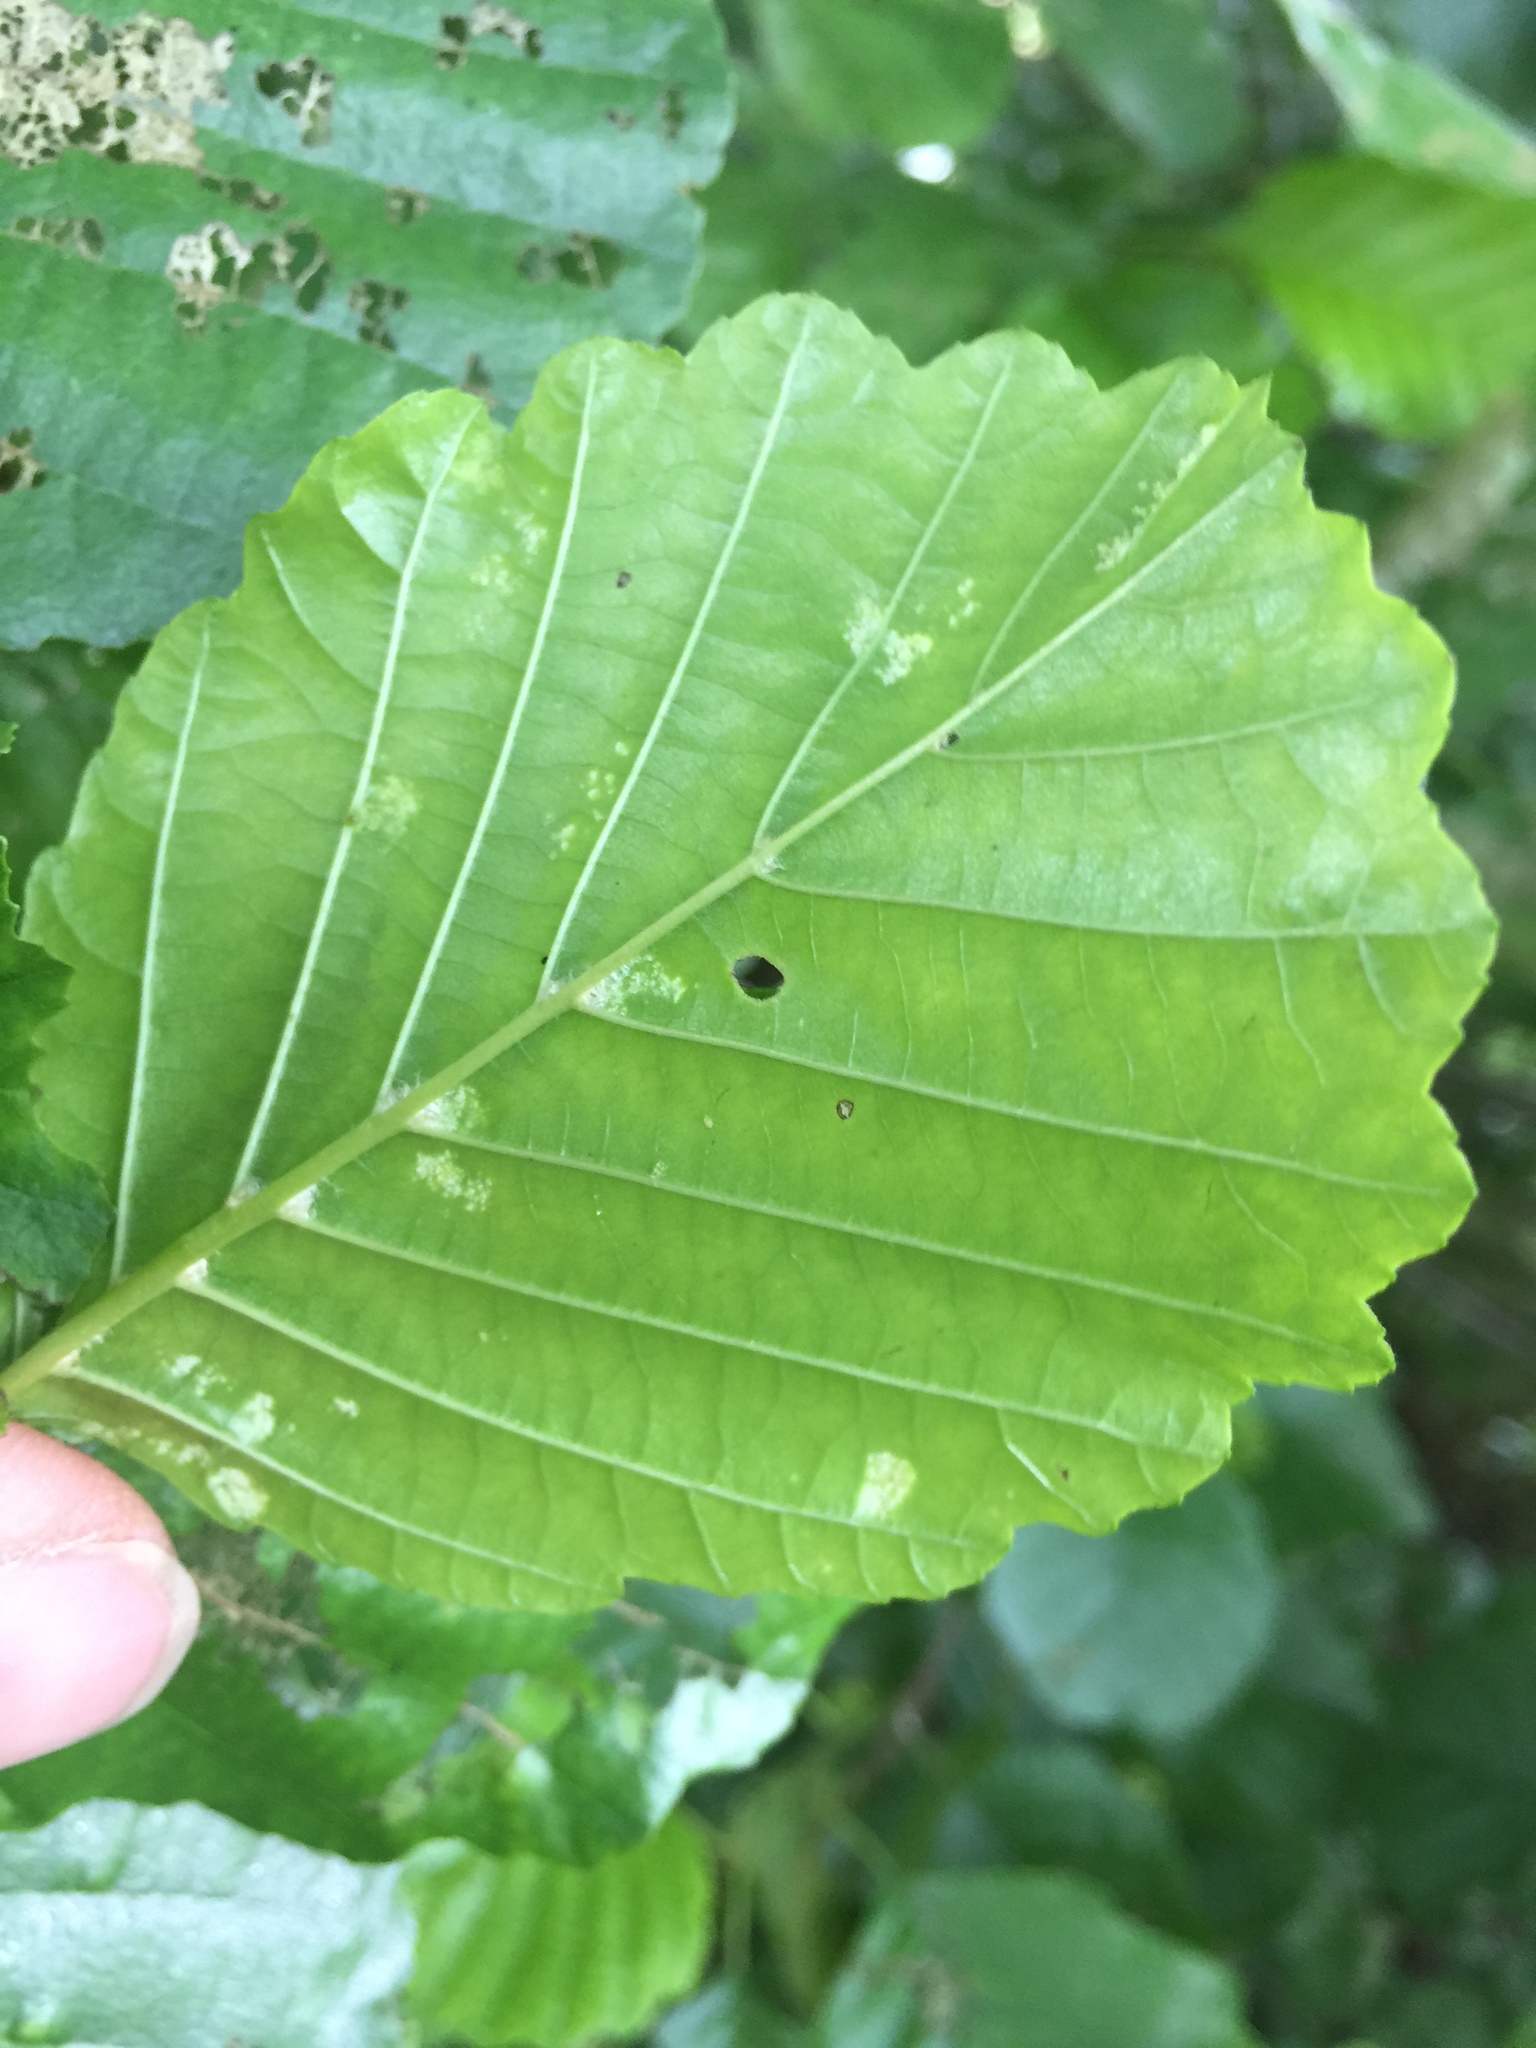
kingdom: Animalia
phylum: Arthropoda
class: Arachnida
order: Trombidiformes
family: Eriophyidae
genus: Acalitus
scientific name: Acalitus brevitarsus
